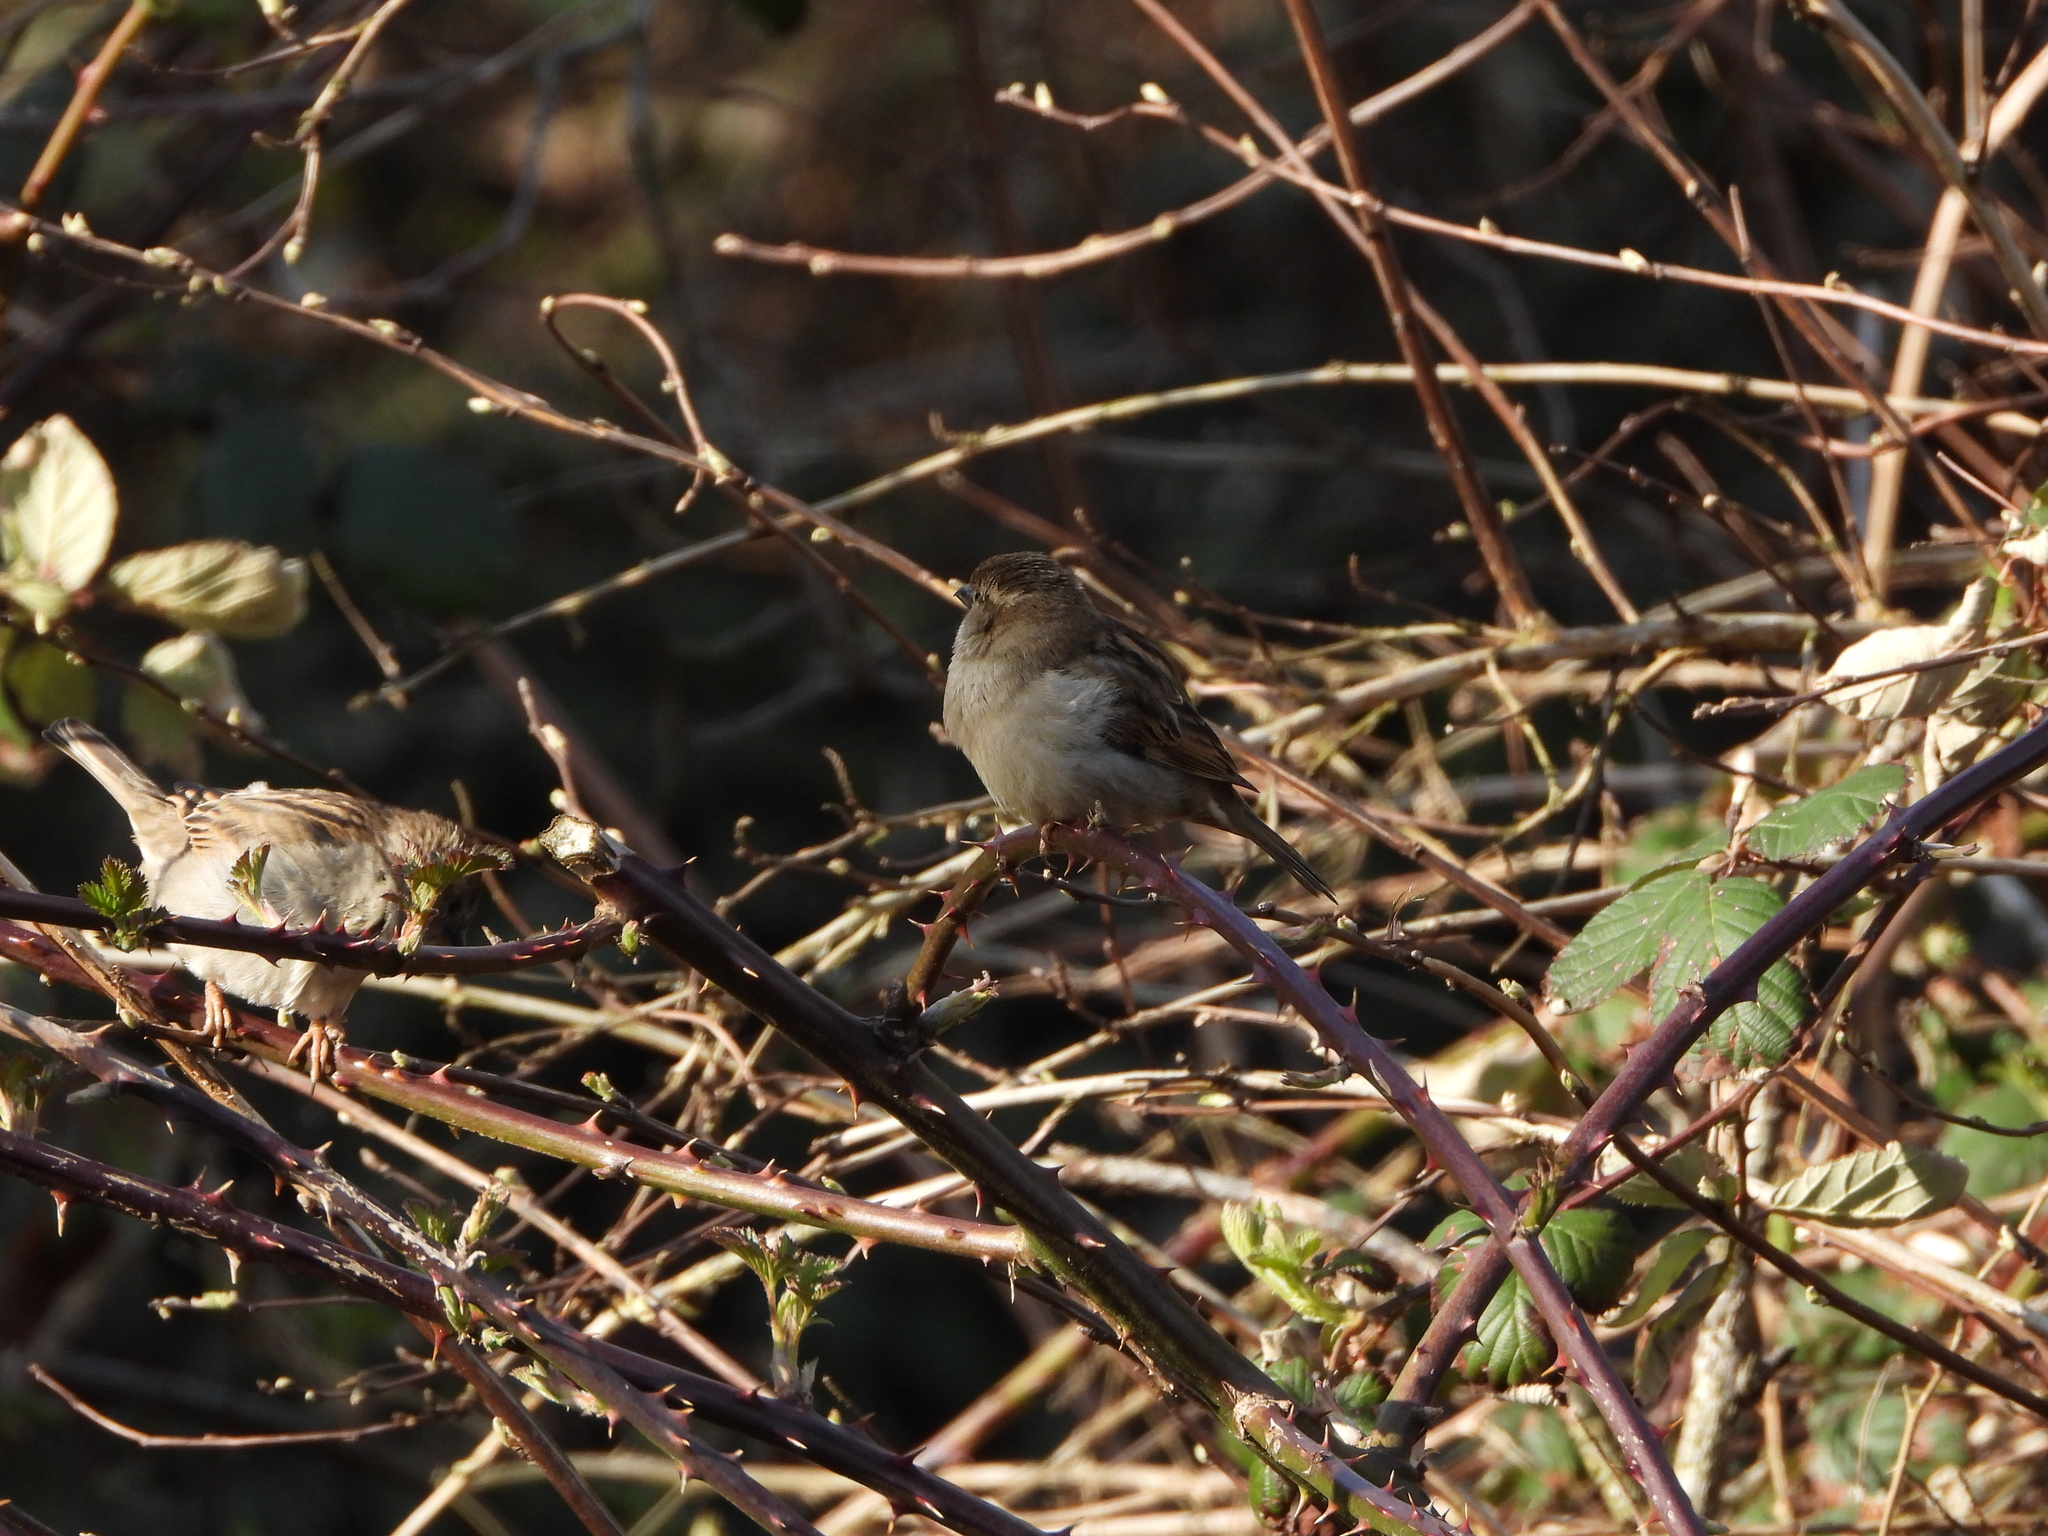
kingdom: Animalia
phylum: Chordata
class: Aves
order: Passeriformes
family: Passeridae
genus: Passer
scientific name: Passer domesticus
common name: House sparrow
